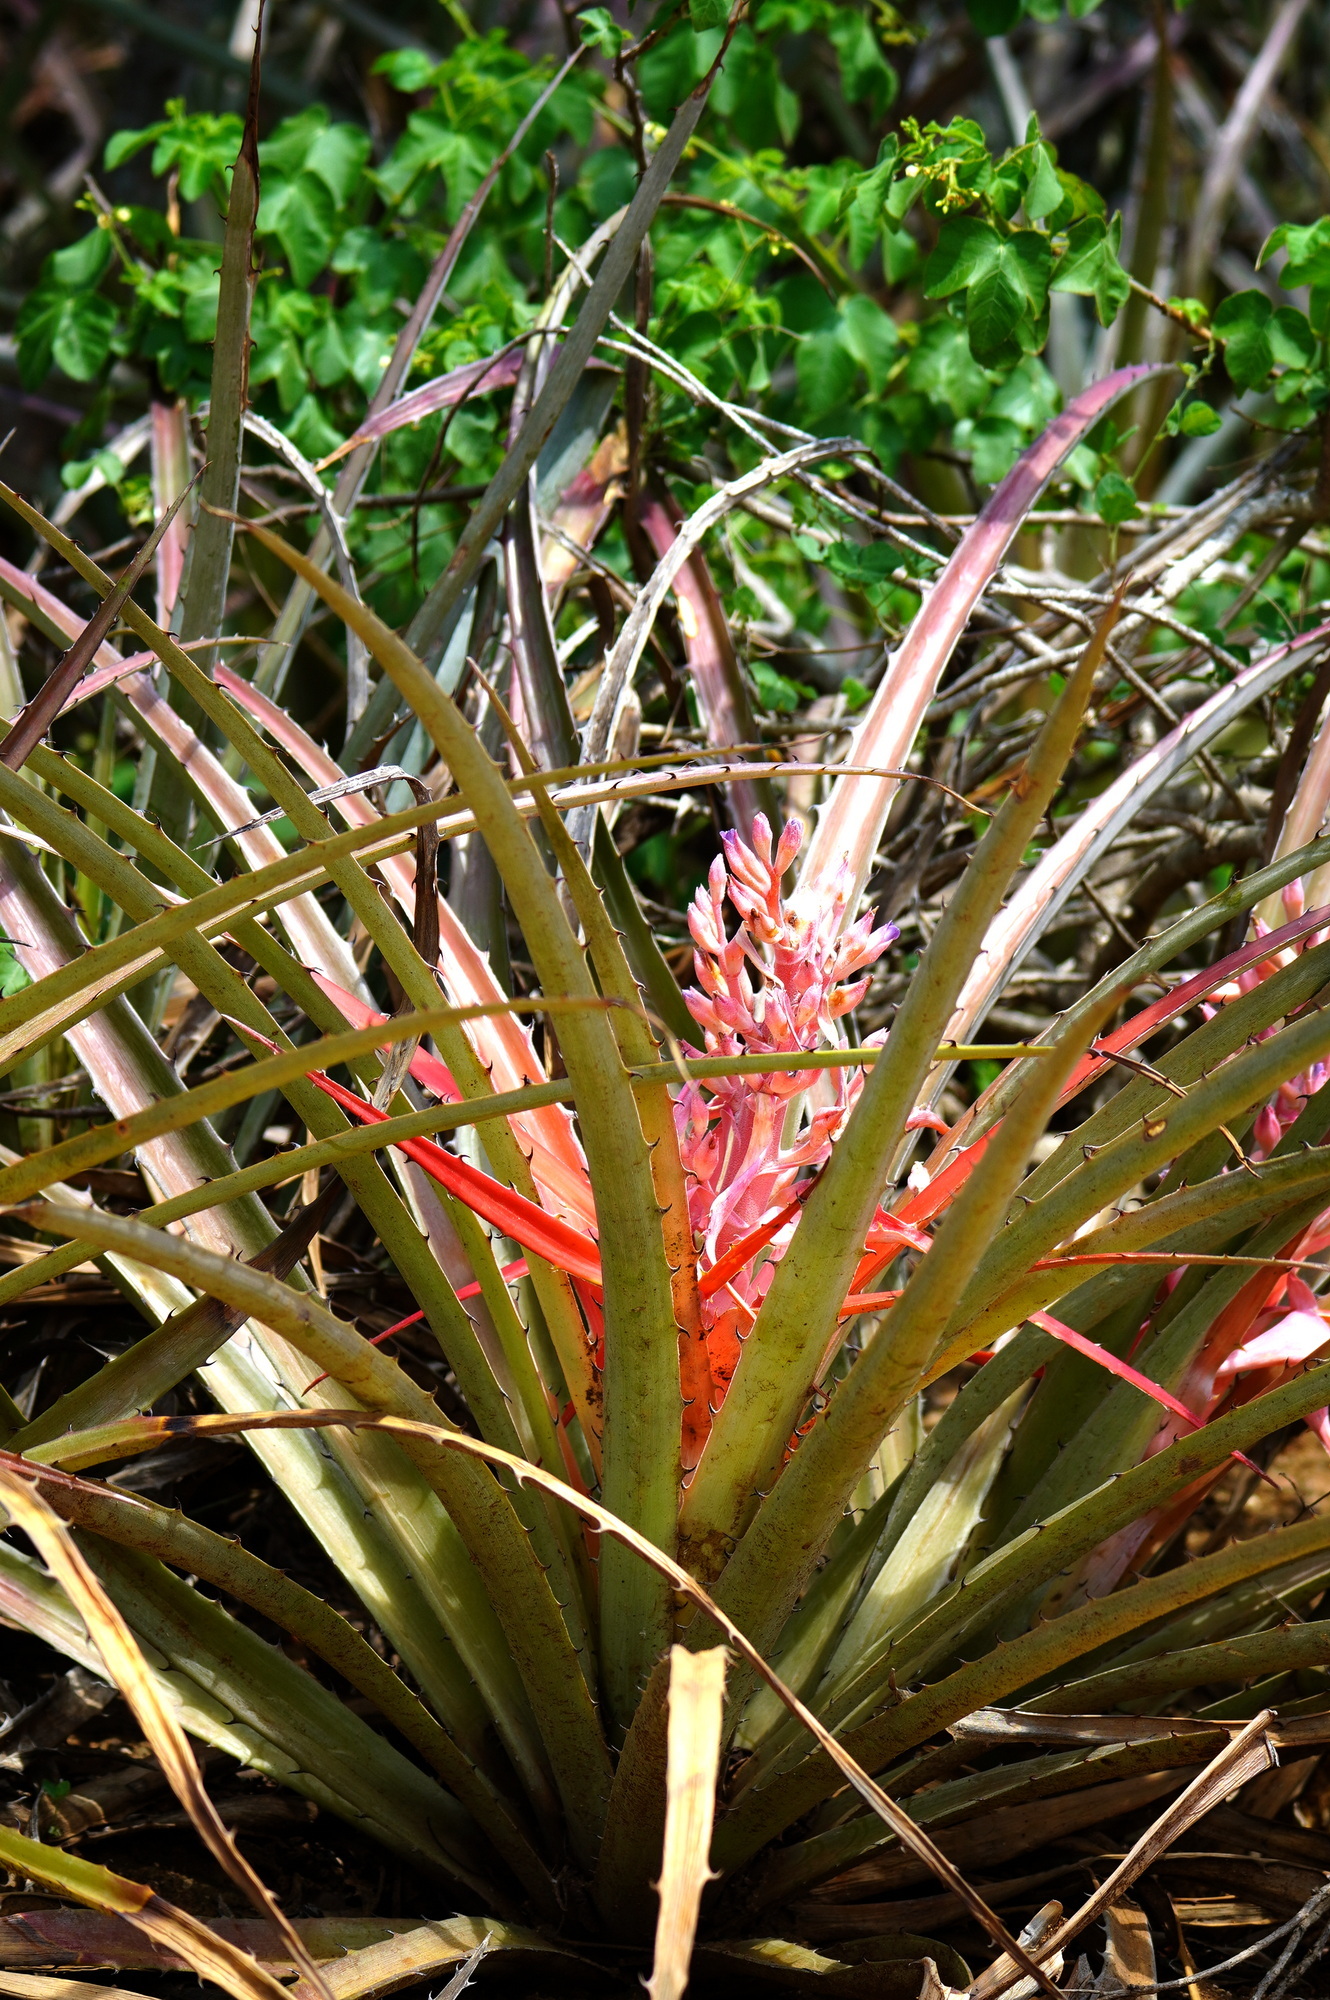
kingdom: Plantae
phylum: Tracheophyta
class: Liliopsida
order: Poales
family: Bromeliaceae
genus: Bromelia
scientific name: Bromelia arenaria
